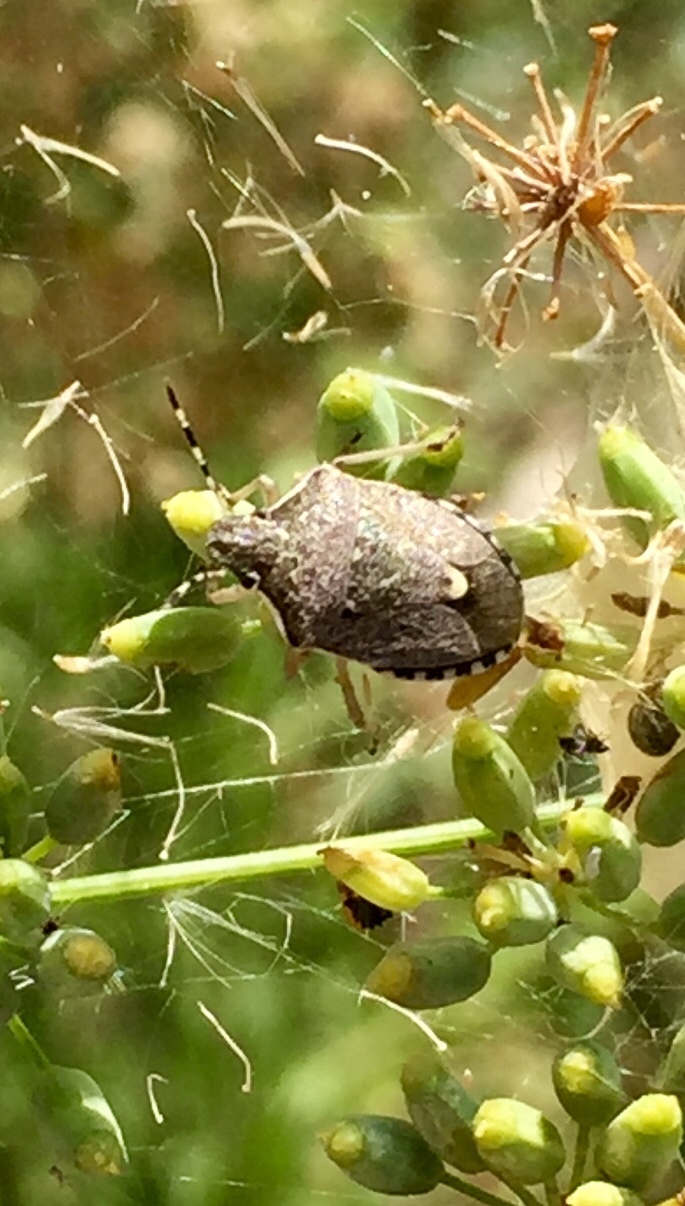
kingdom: Animalia
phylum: Arthropoda
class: Insecta
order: Hemiptera
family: Pentatomidae
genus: Holcostethus
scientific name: Holcostethus albipes
